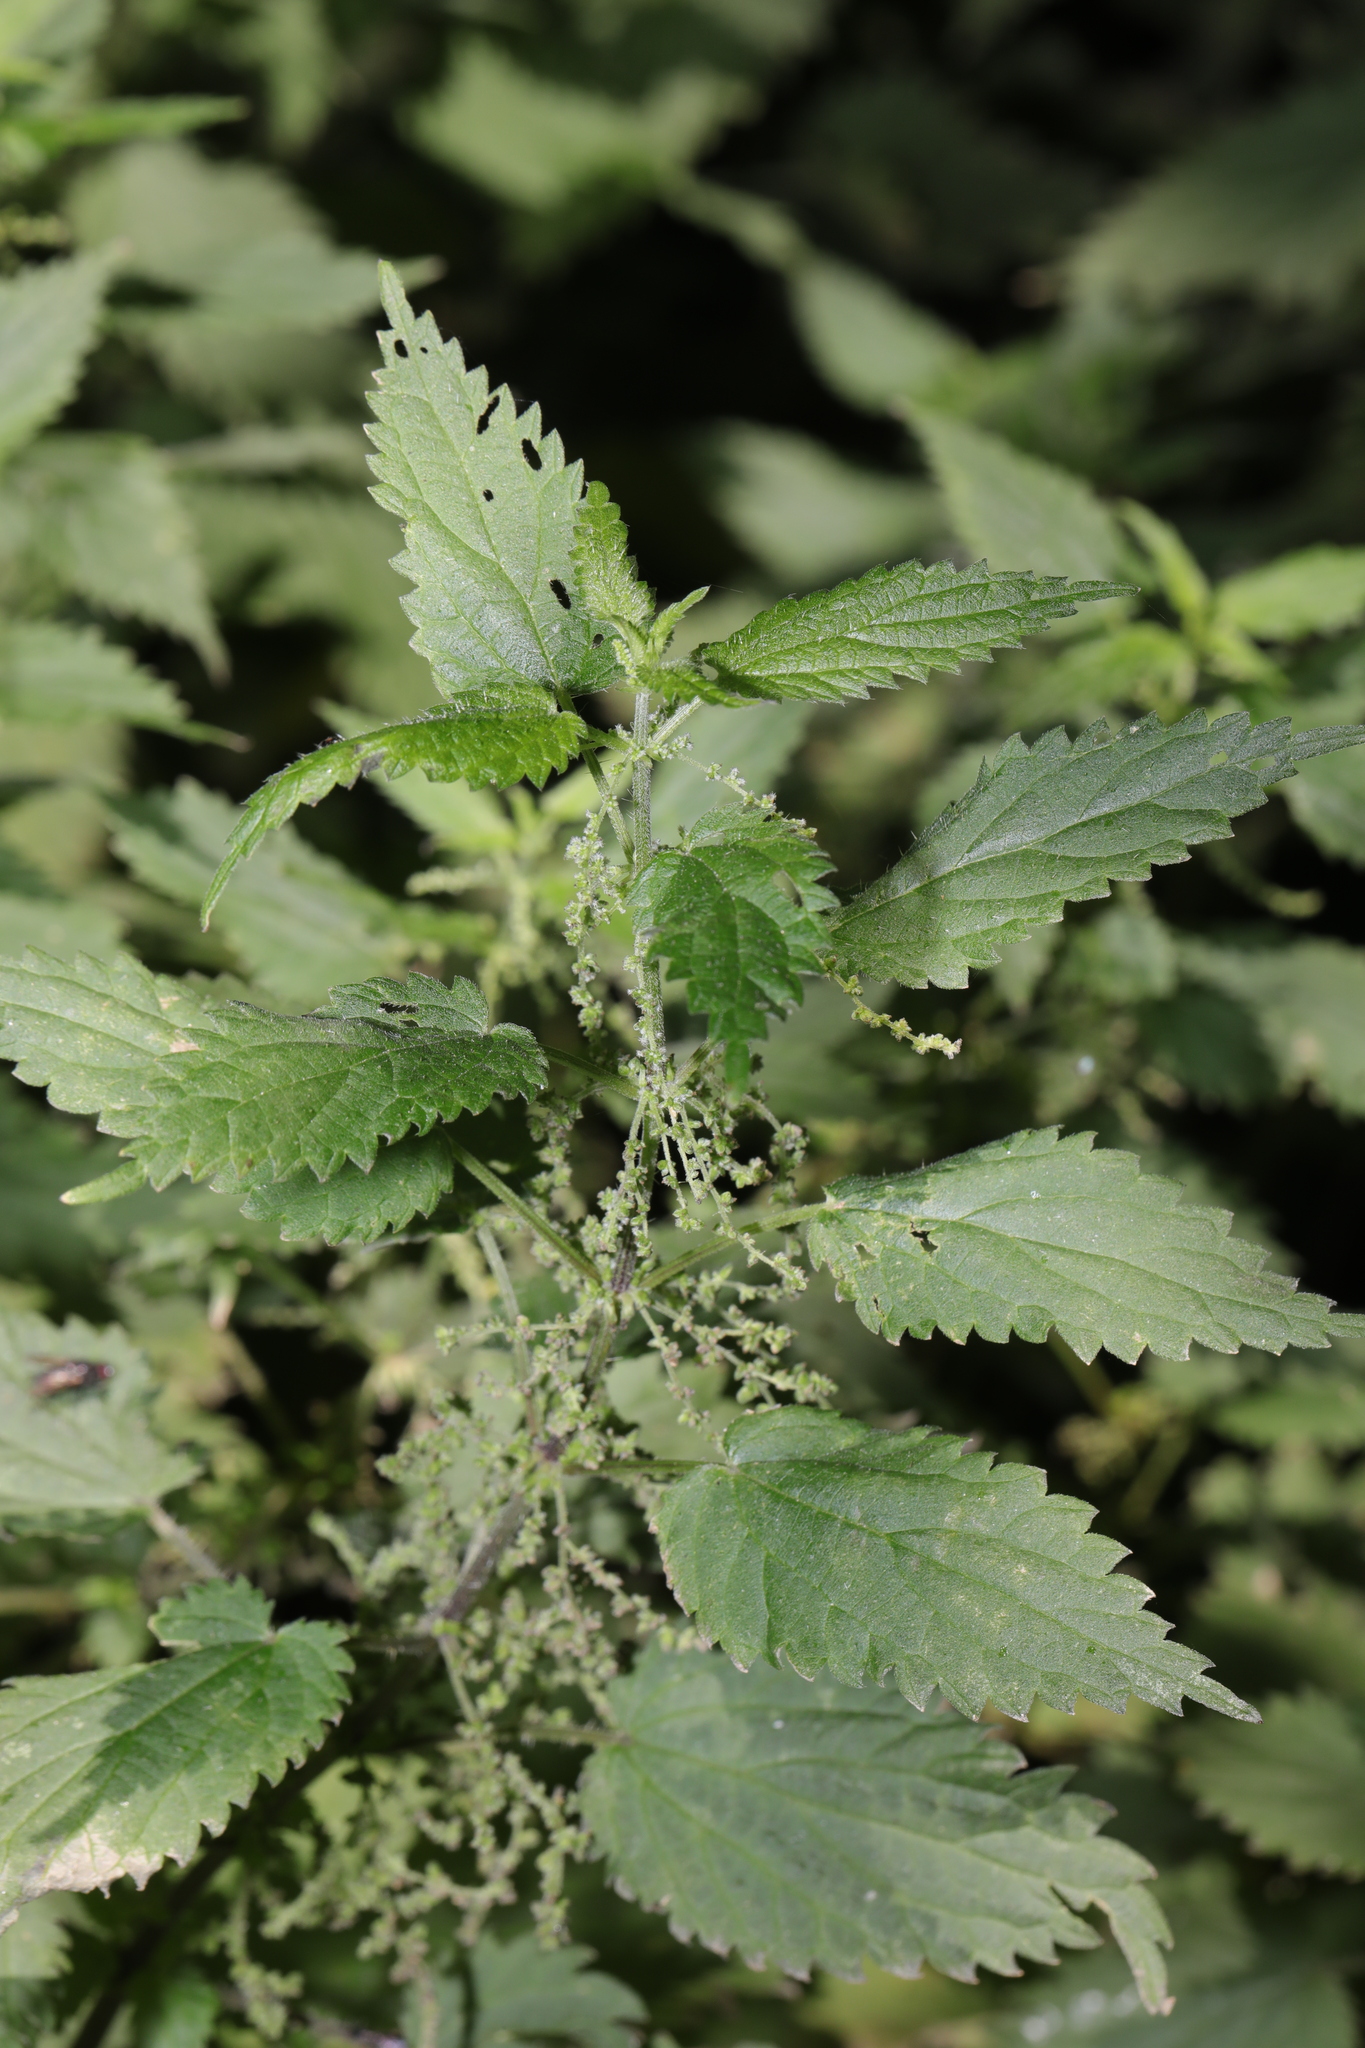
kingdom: Plantae
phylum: Tracheophyta
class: Magnoliopsida
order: Rosales
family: Urticaceae
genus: Urtica
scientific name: Urtica dioica
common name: Common nettle
